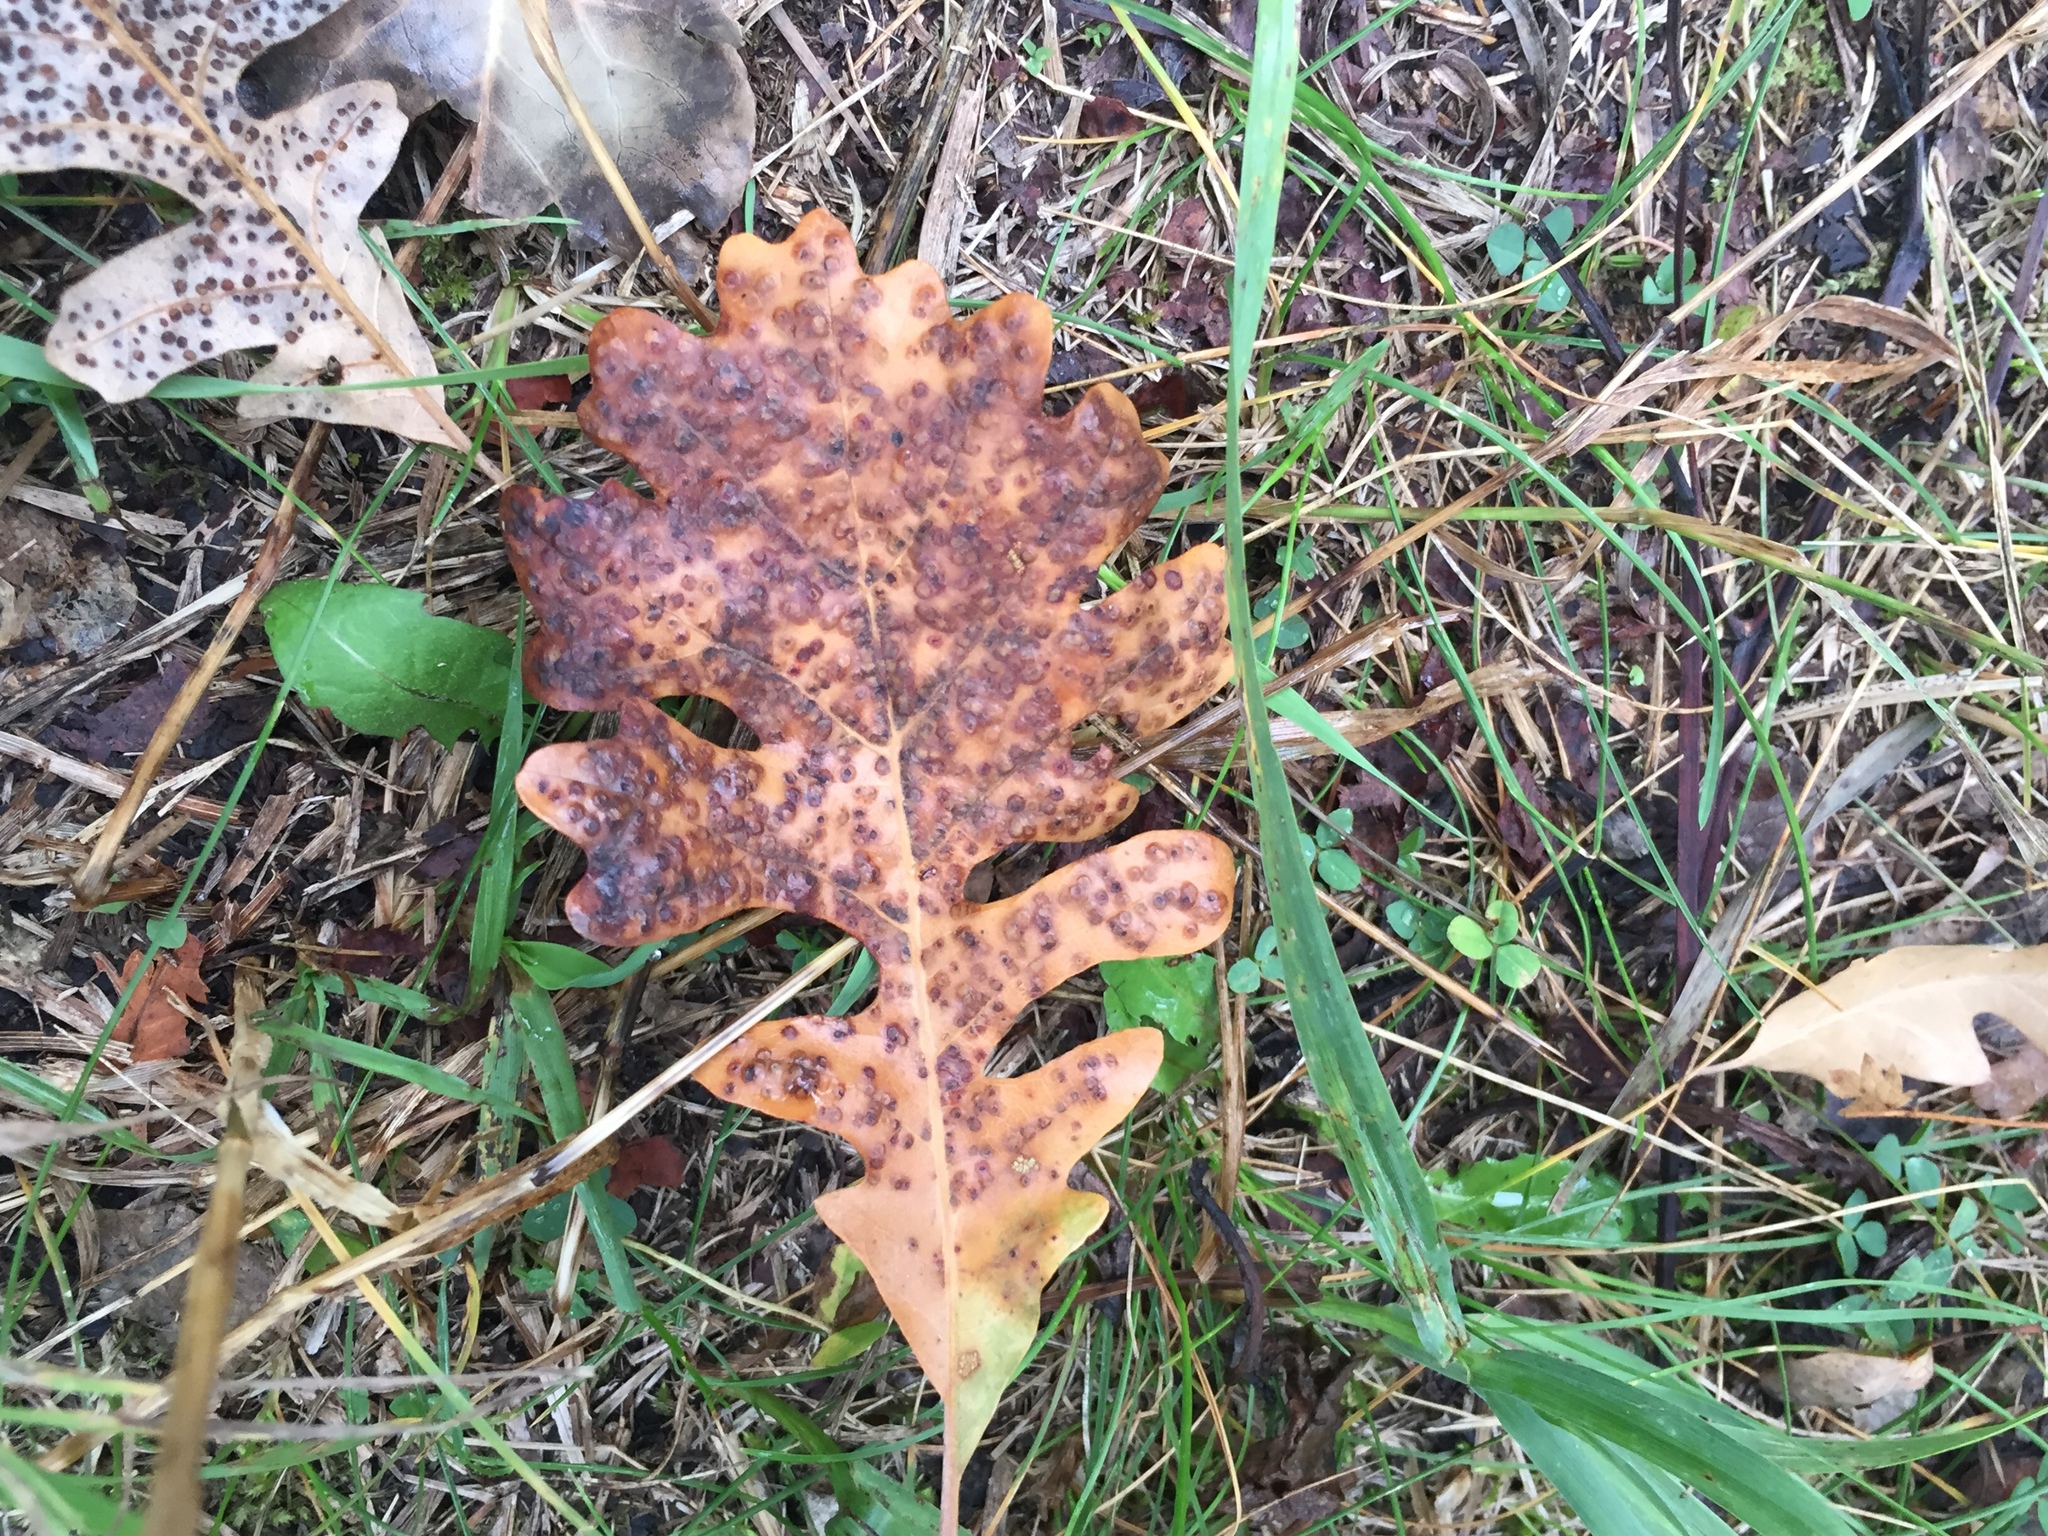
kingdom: Plantae
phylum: Tracheophyta
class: Magnoliopsida
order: Fagales
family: Fagaceae
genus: Quercus
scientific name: Quercus macrocarpa
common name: Bur oak
